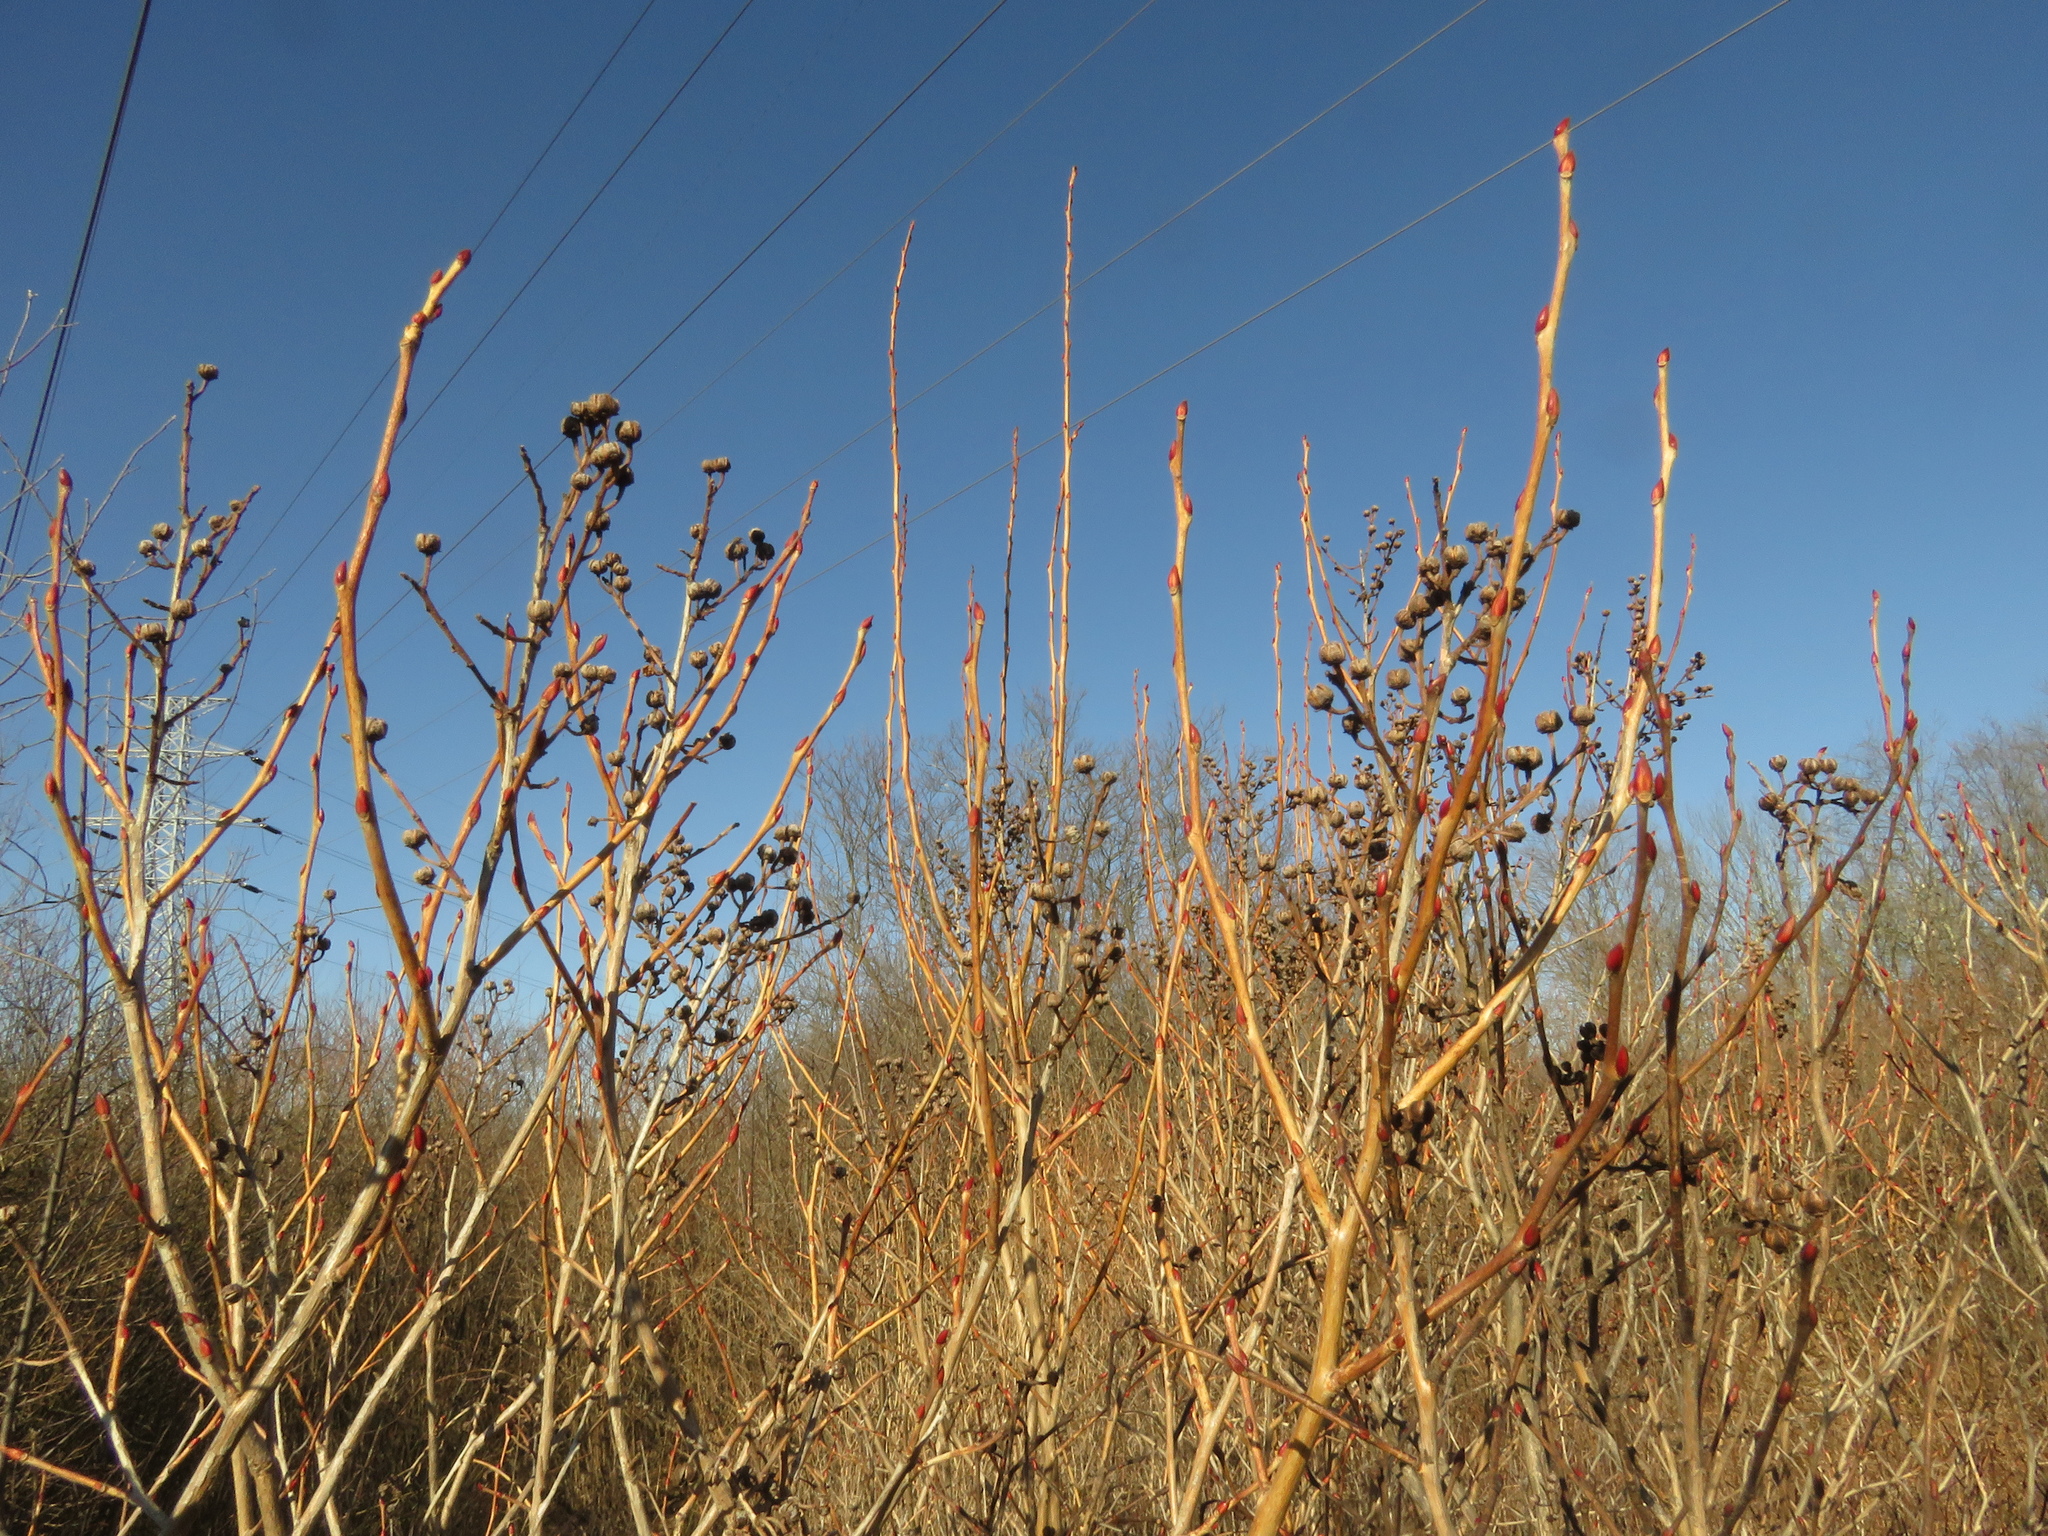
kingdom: Plantae
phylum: Tracheophyta
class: Magnoliopsida
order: Ericales
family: Ericaceae
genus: Lyonia
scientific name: Lyonia ligustrina
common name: Maleberry
